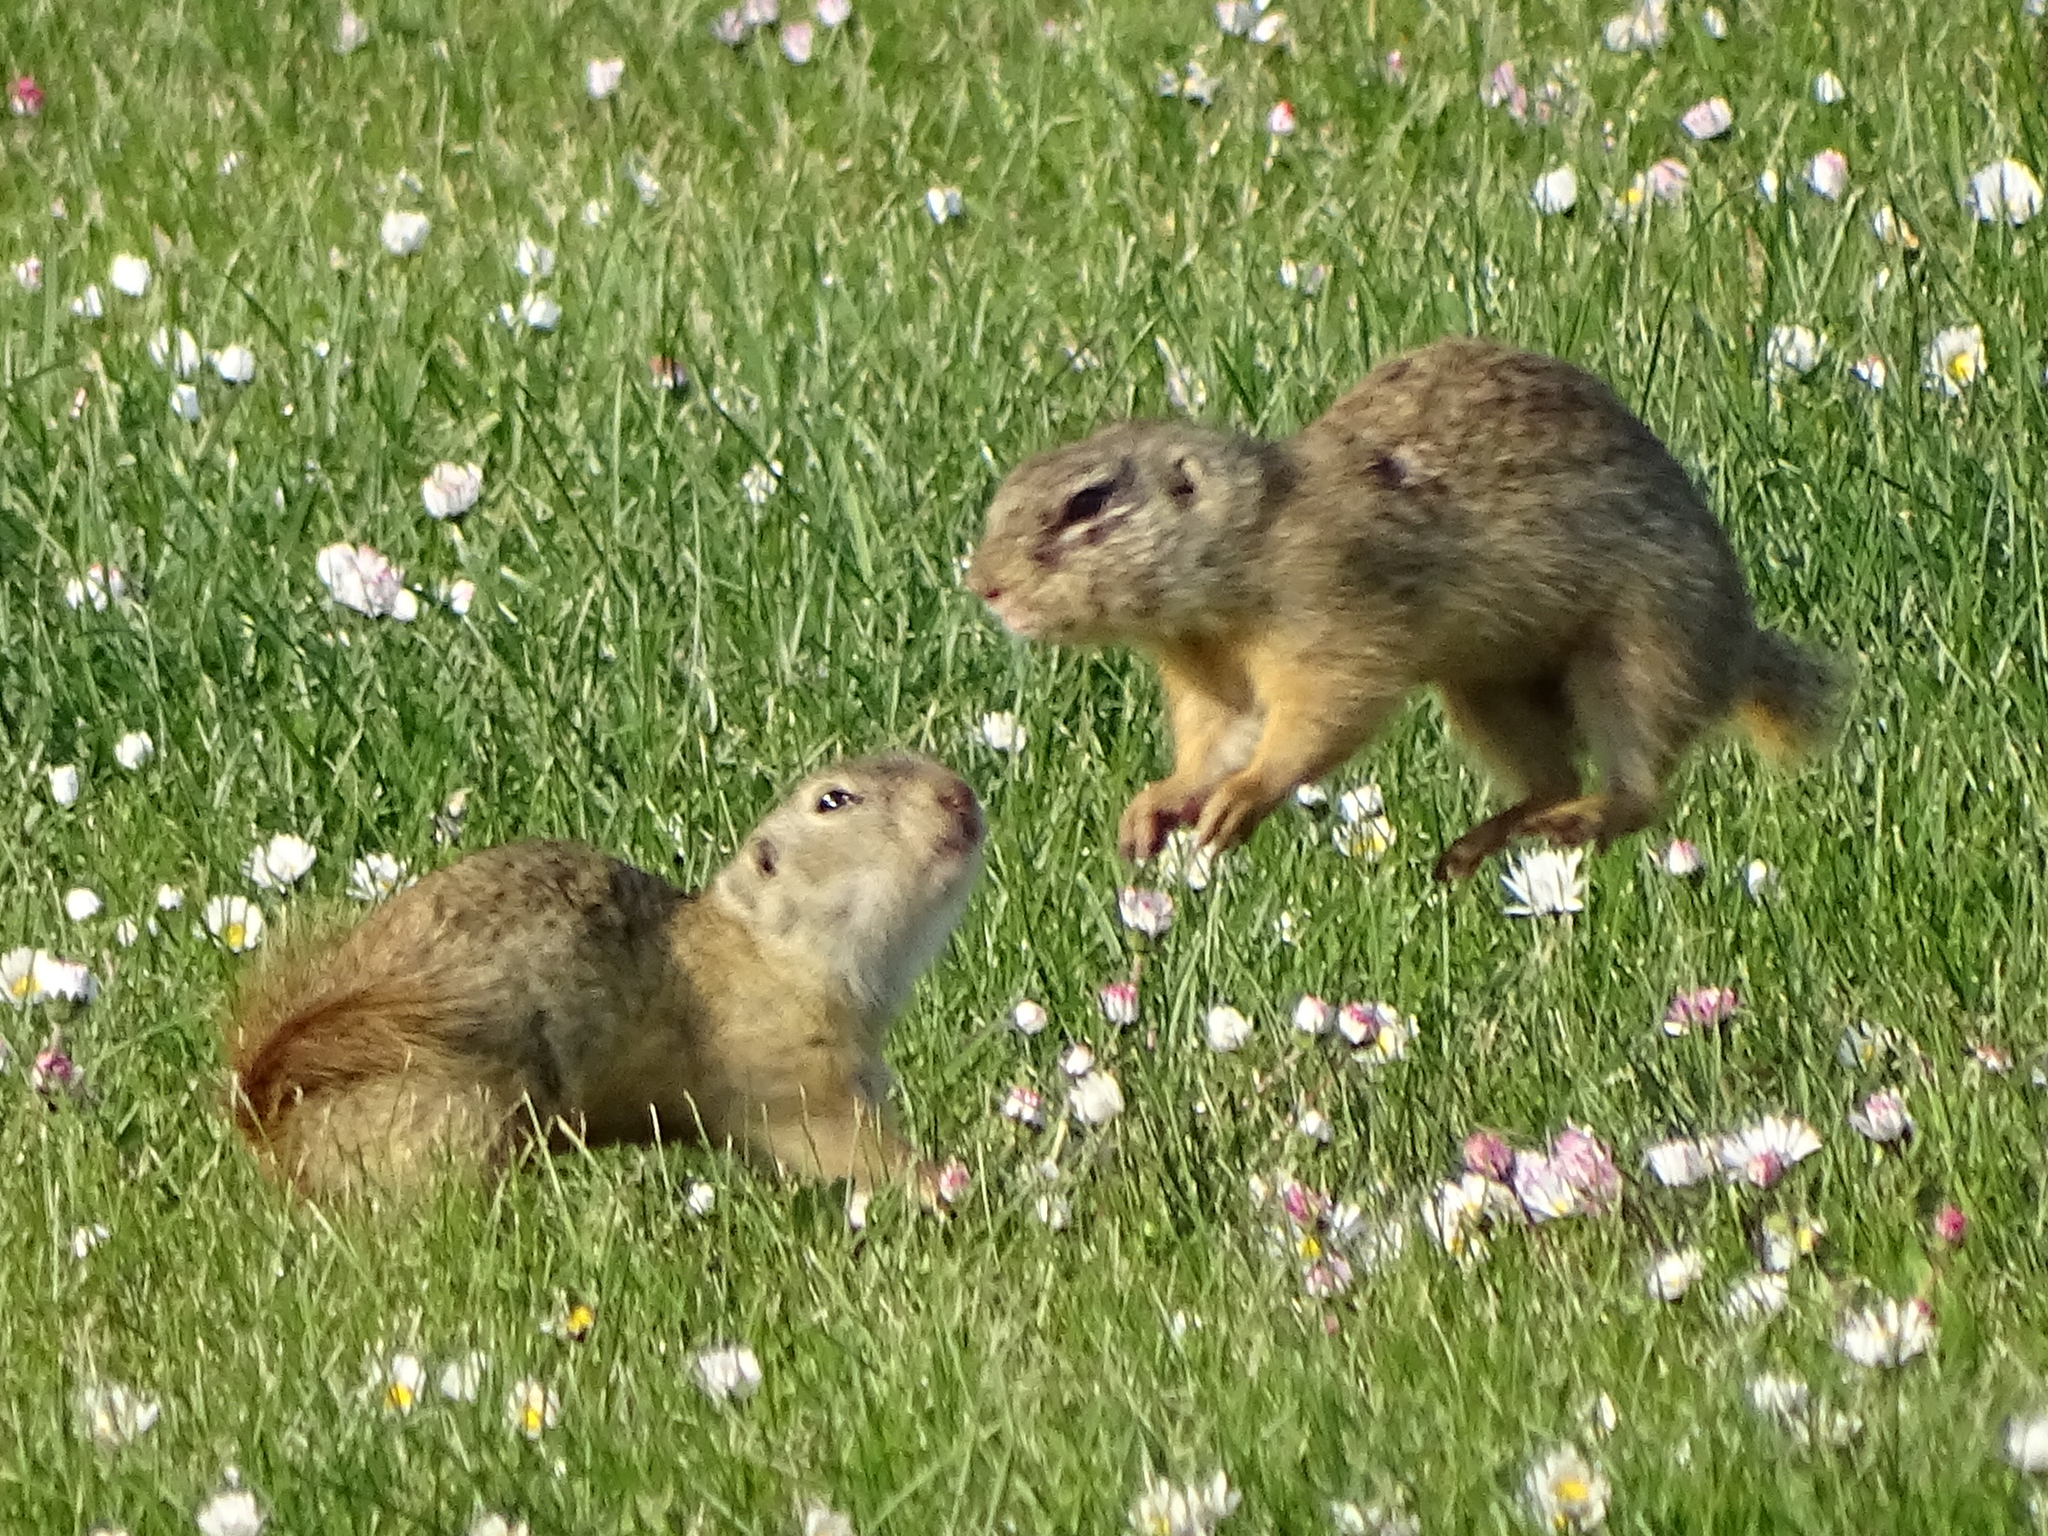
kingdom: Animalia
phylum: Chordata
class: Mammalia
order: Rodentia
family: Sciuridae
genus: Spermophilus
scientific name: Spermophilus citellus
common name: European ground squirrel
